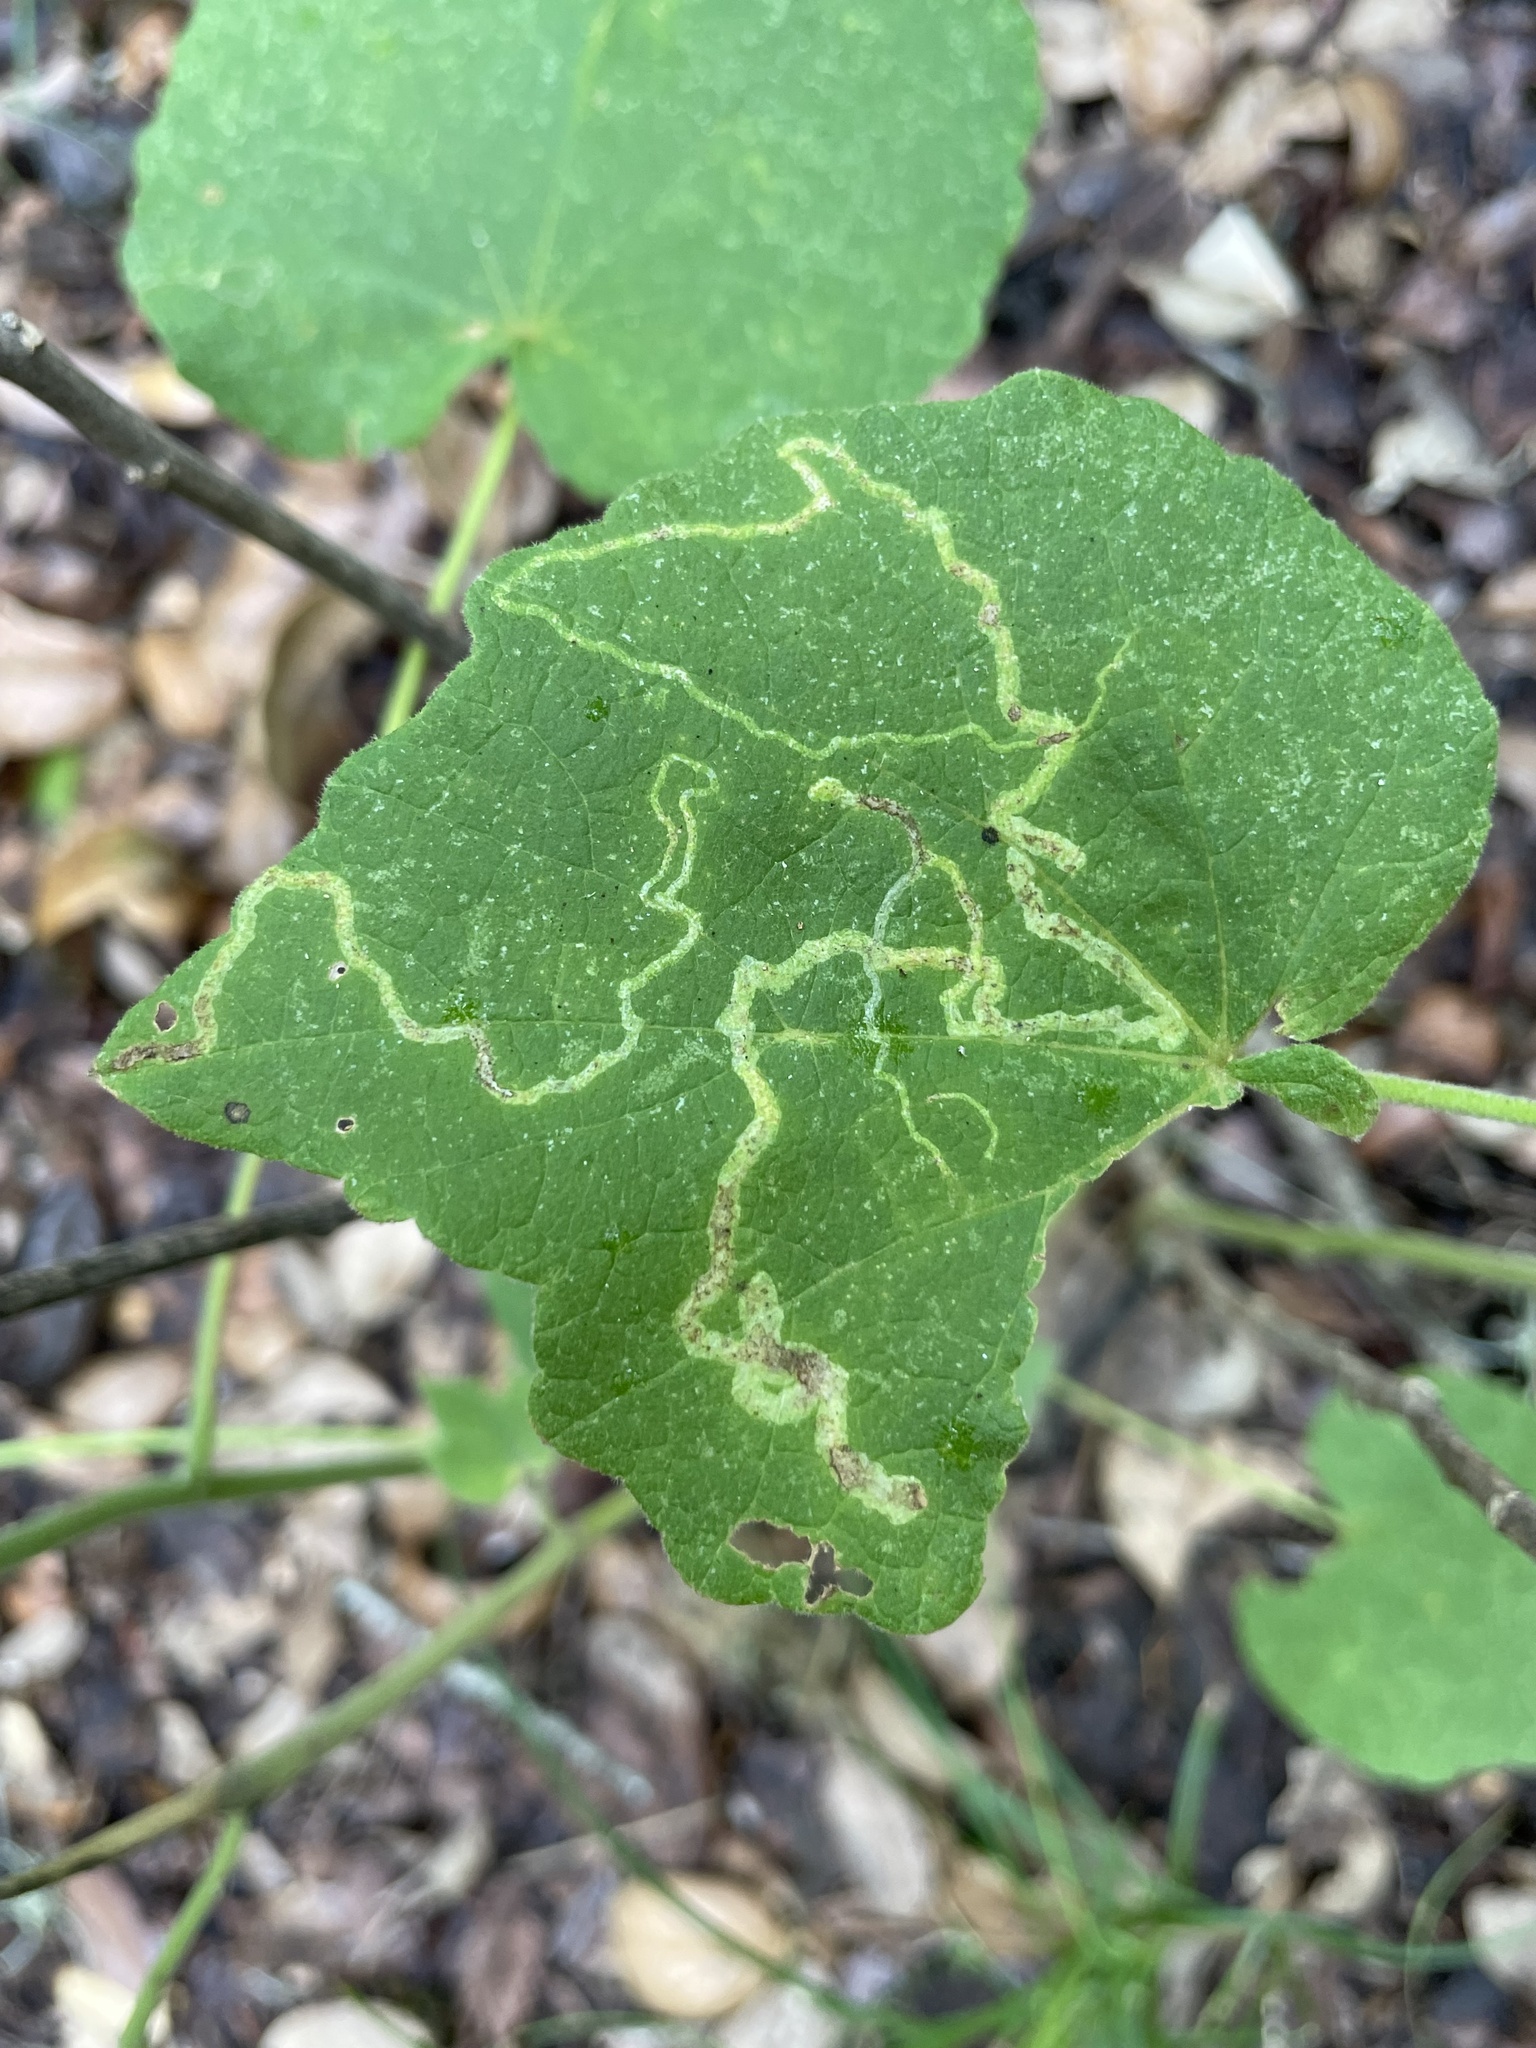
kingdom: Animalia
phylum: Arthropoda
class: Insecta
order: Diptera
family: Agromyzidae
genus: Calycomyza
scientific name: Calycomyza malvae
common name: Mallow leaf miner
